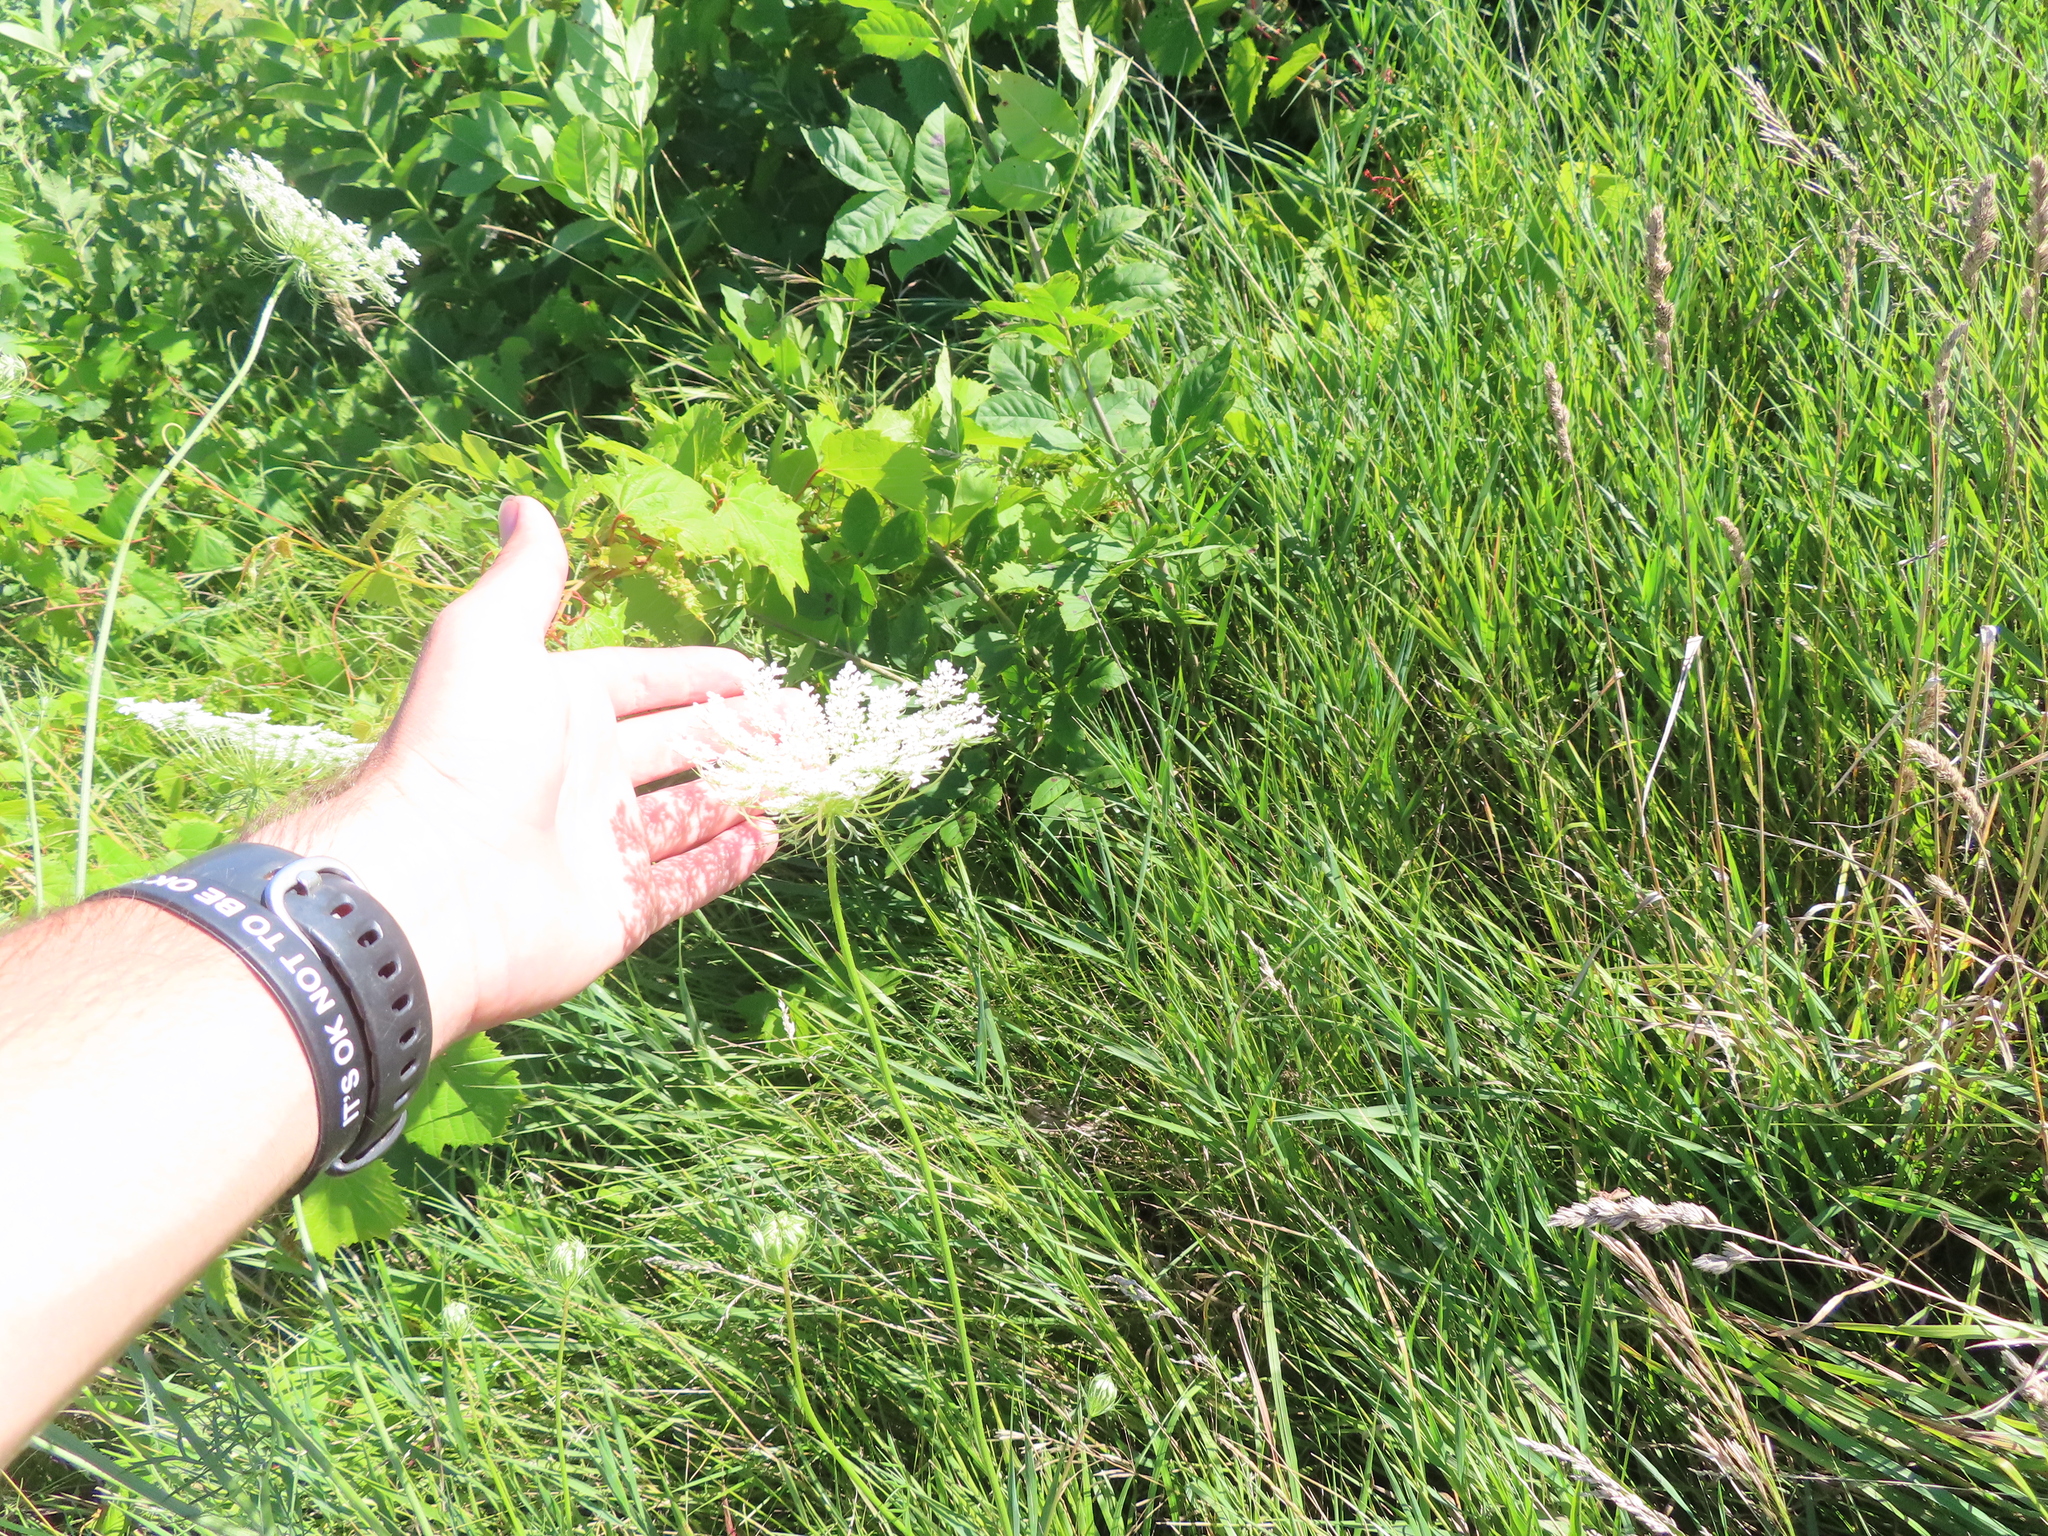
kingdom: Plantae
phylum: Tracheophyta
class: Magnoliopsida
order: Apiales
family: Apiaceae
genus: Daucus
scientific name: Daucus carota
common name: Wild carrot
